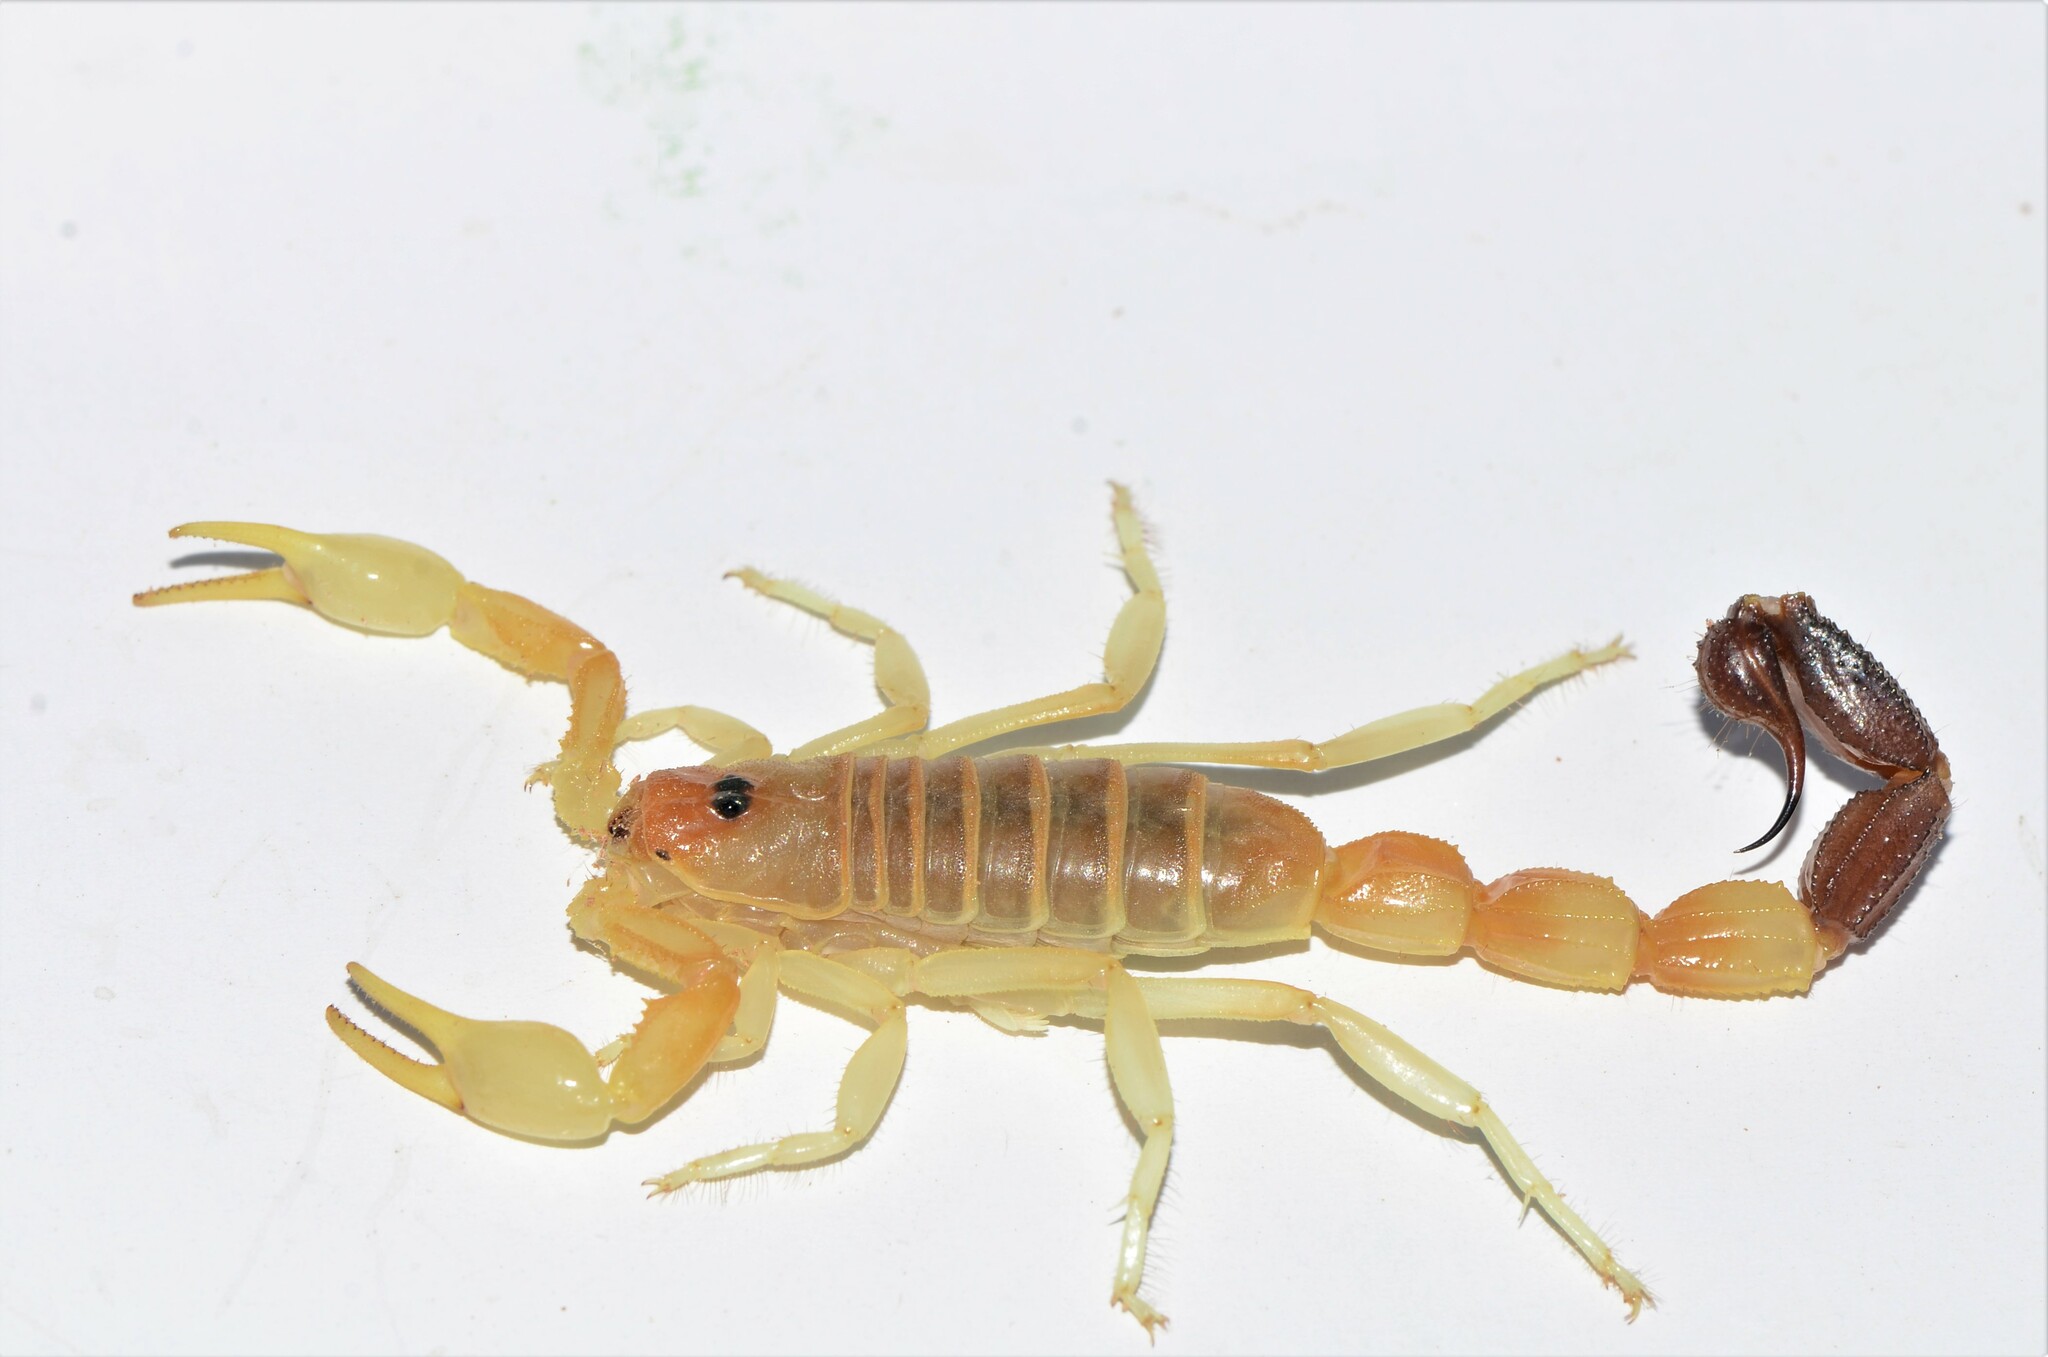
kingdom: Animalia
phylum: Arthropoda
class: Arachnida
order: Scorpiones
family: Buthidae
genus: Parabuthus
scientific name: Parabuthus laevifrons
